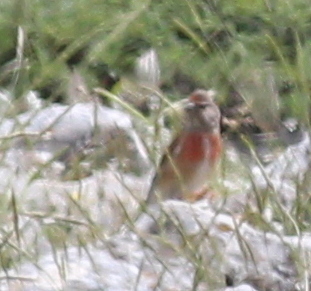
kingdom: Animalia
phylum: Chordata
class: Aves
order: Passeriformes
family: Fringillidae
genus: Linaria
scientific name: Linaria cannabina
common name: Common linnet
